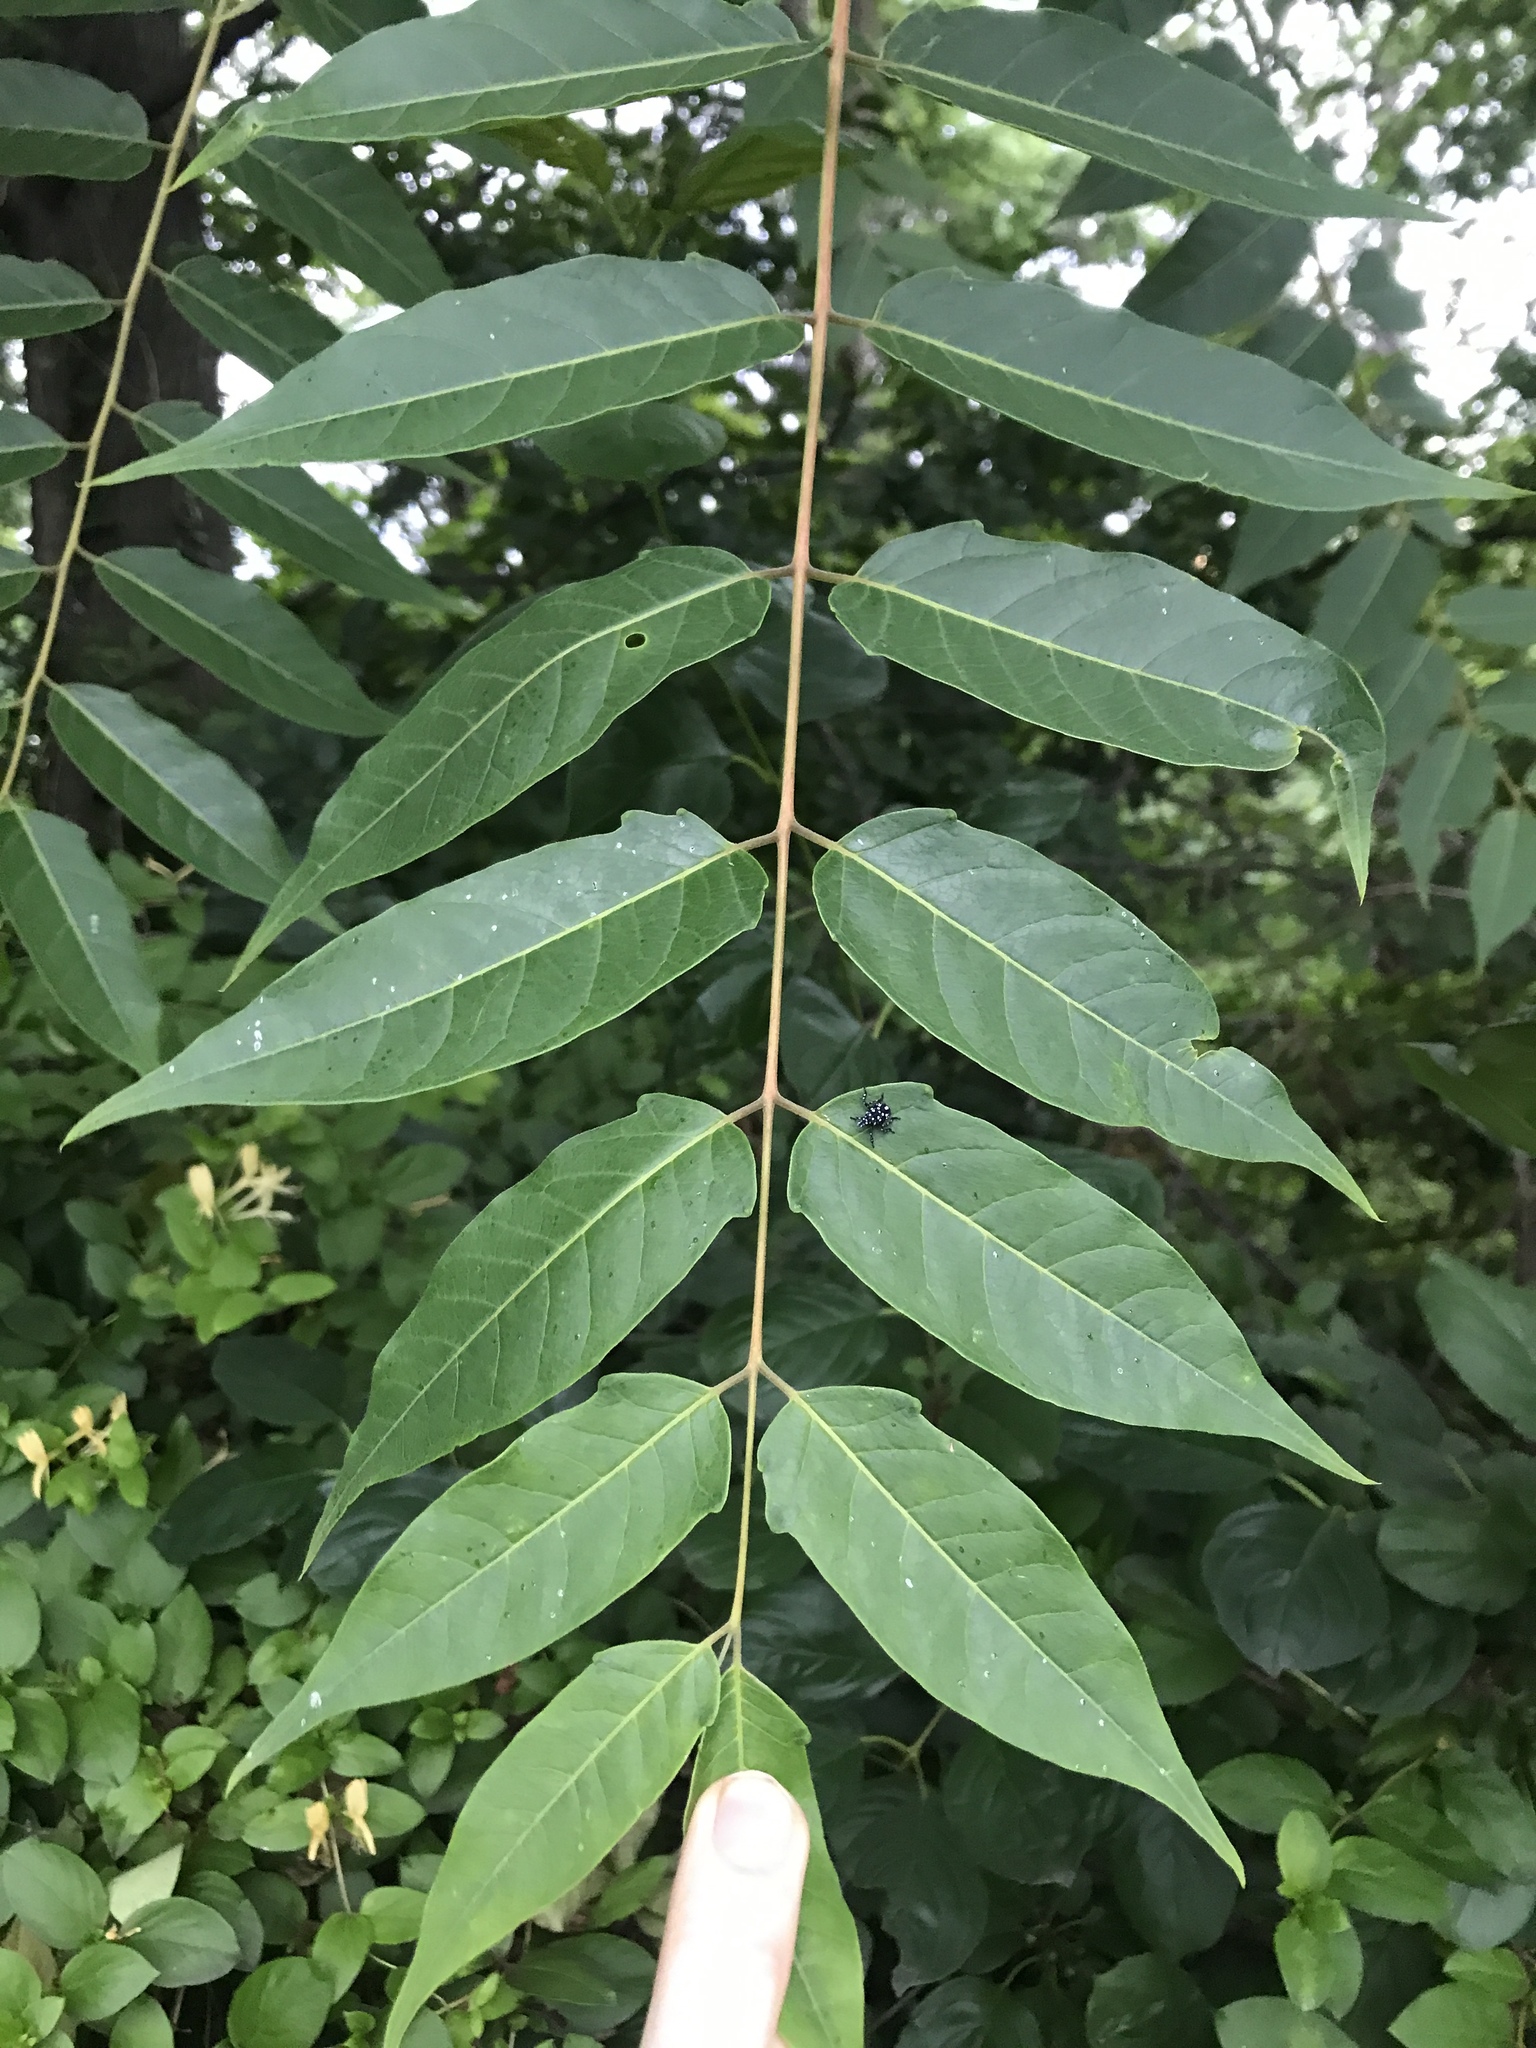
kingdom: Plantae
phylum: Tracheophyta
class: Magnoliopsida
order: Sapindales
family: Simaroubaceae
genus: Ailanthus
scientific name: Ailanthus altissima
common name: Tree-of-heaven
